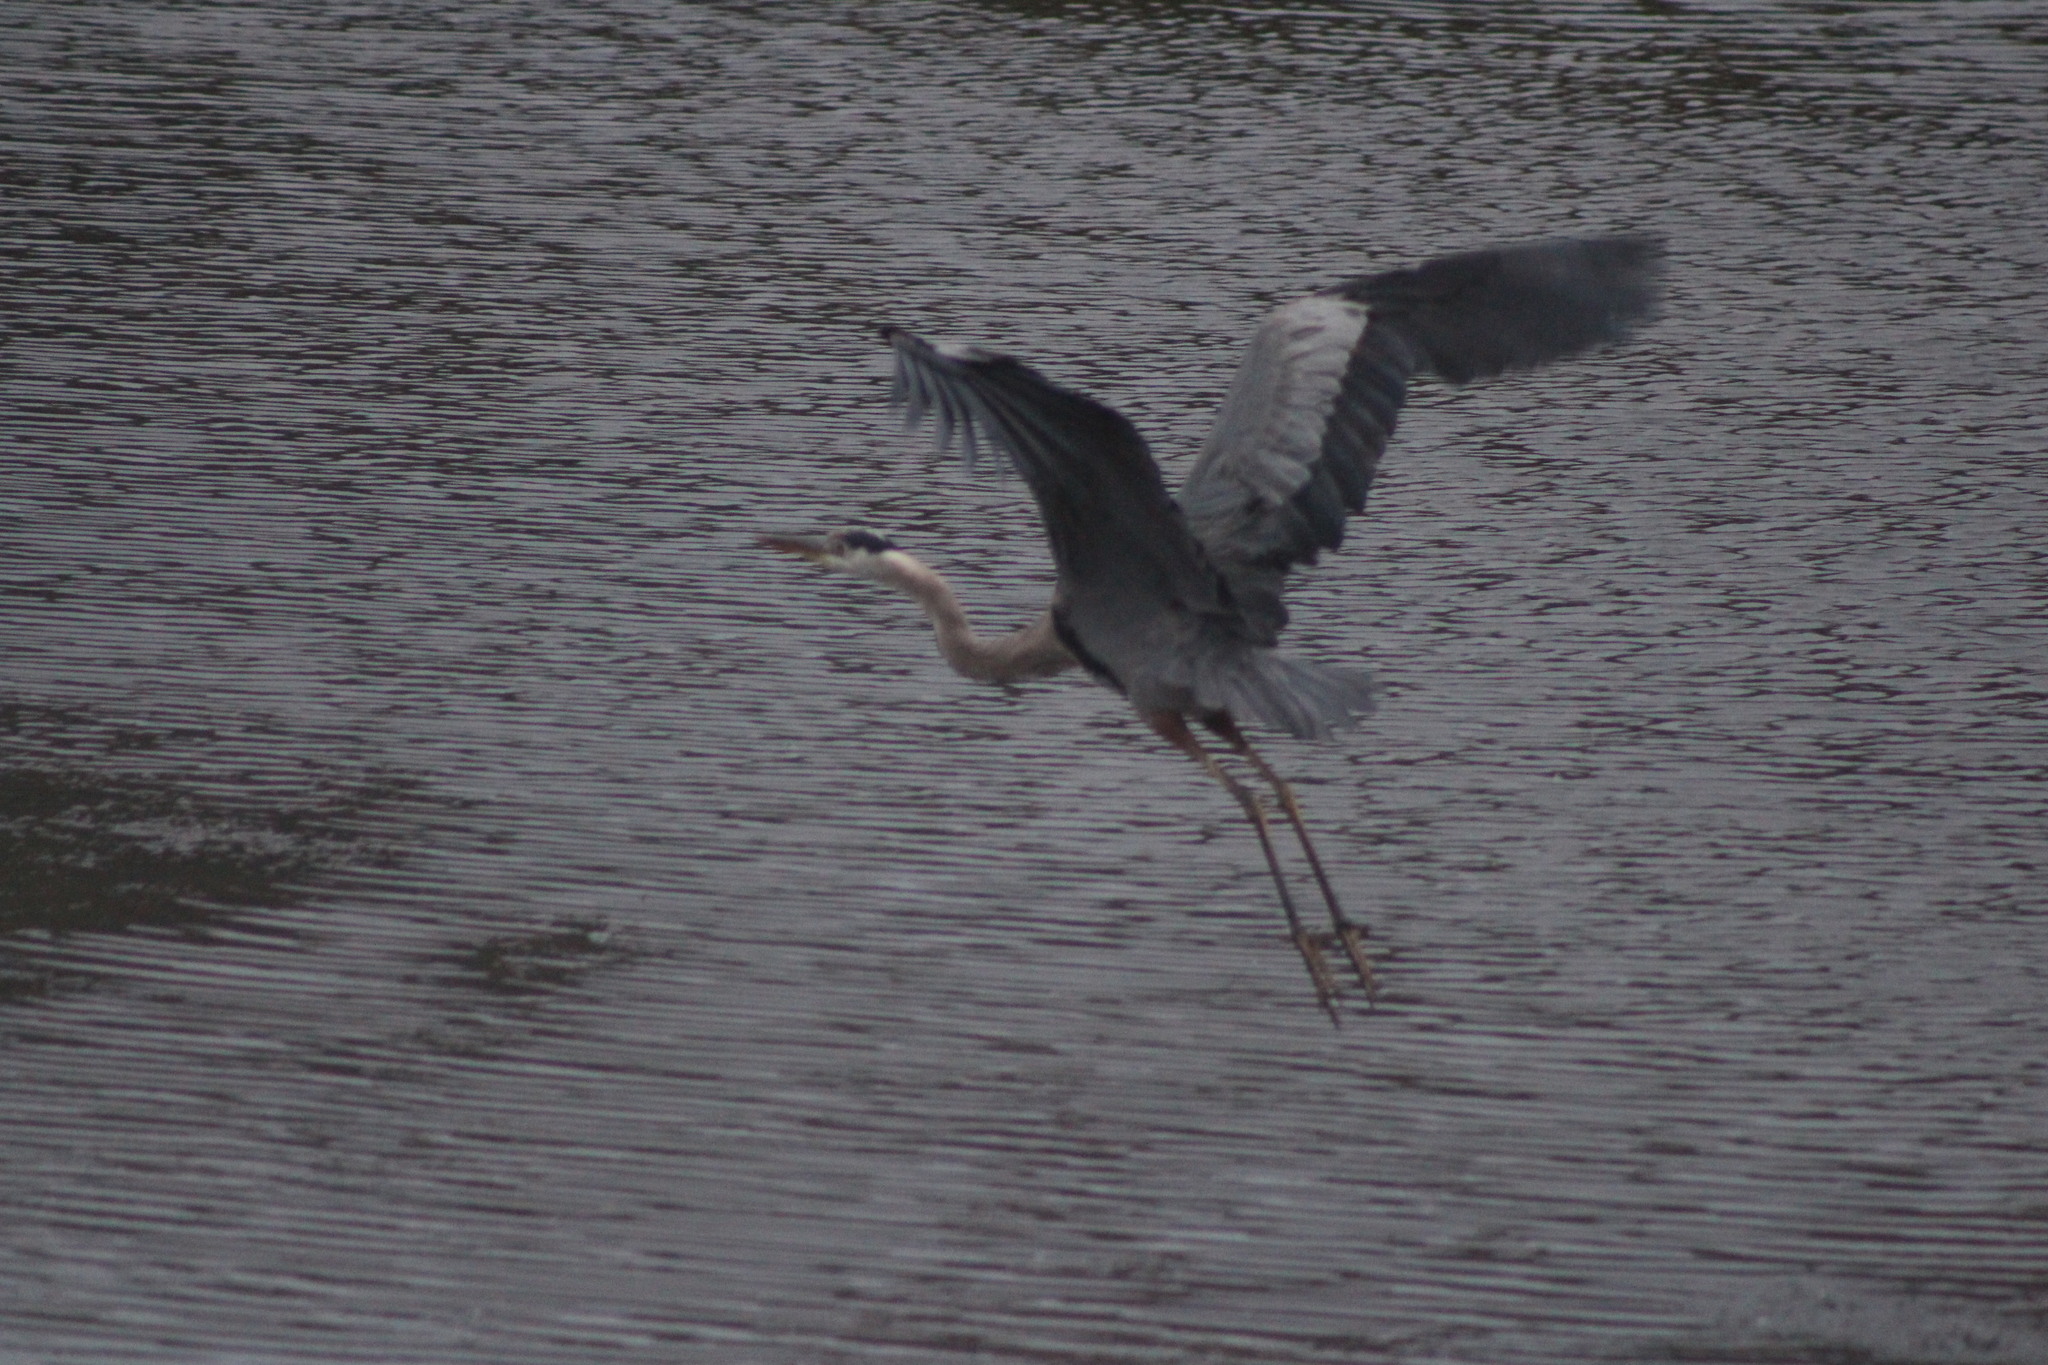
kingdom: Animalia
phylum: Chordata
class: Aves
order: Pelecaniformes
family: Ardeidae
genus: Ardea
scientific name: Ardea herodias
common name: Great blue heron
